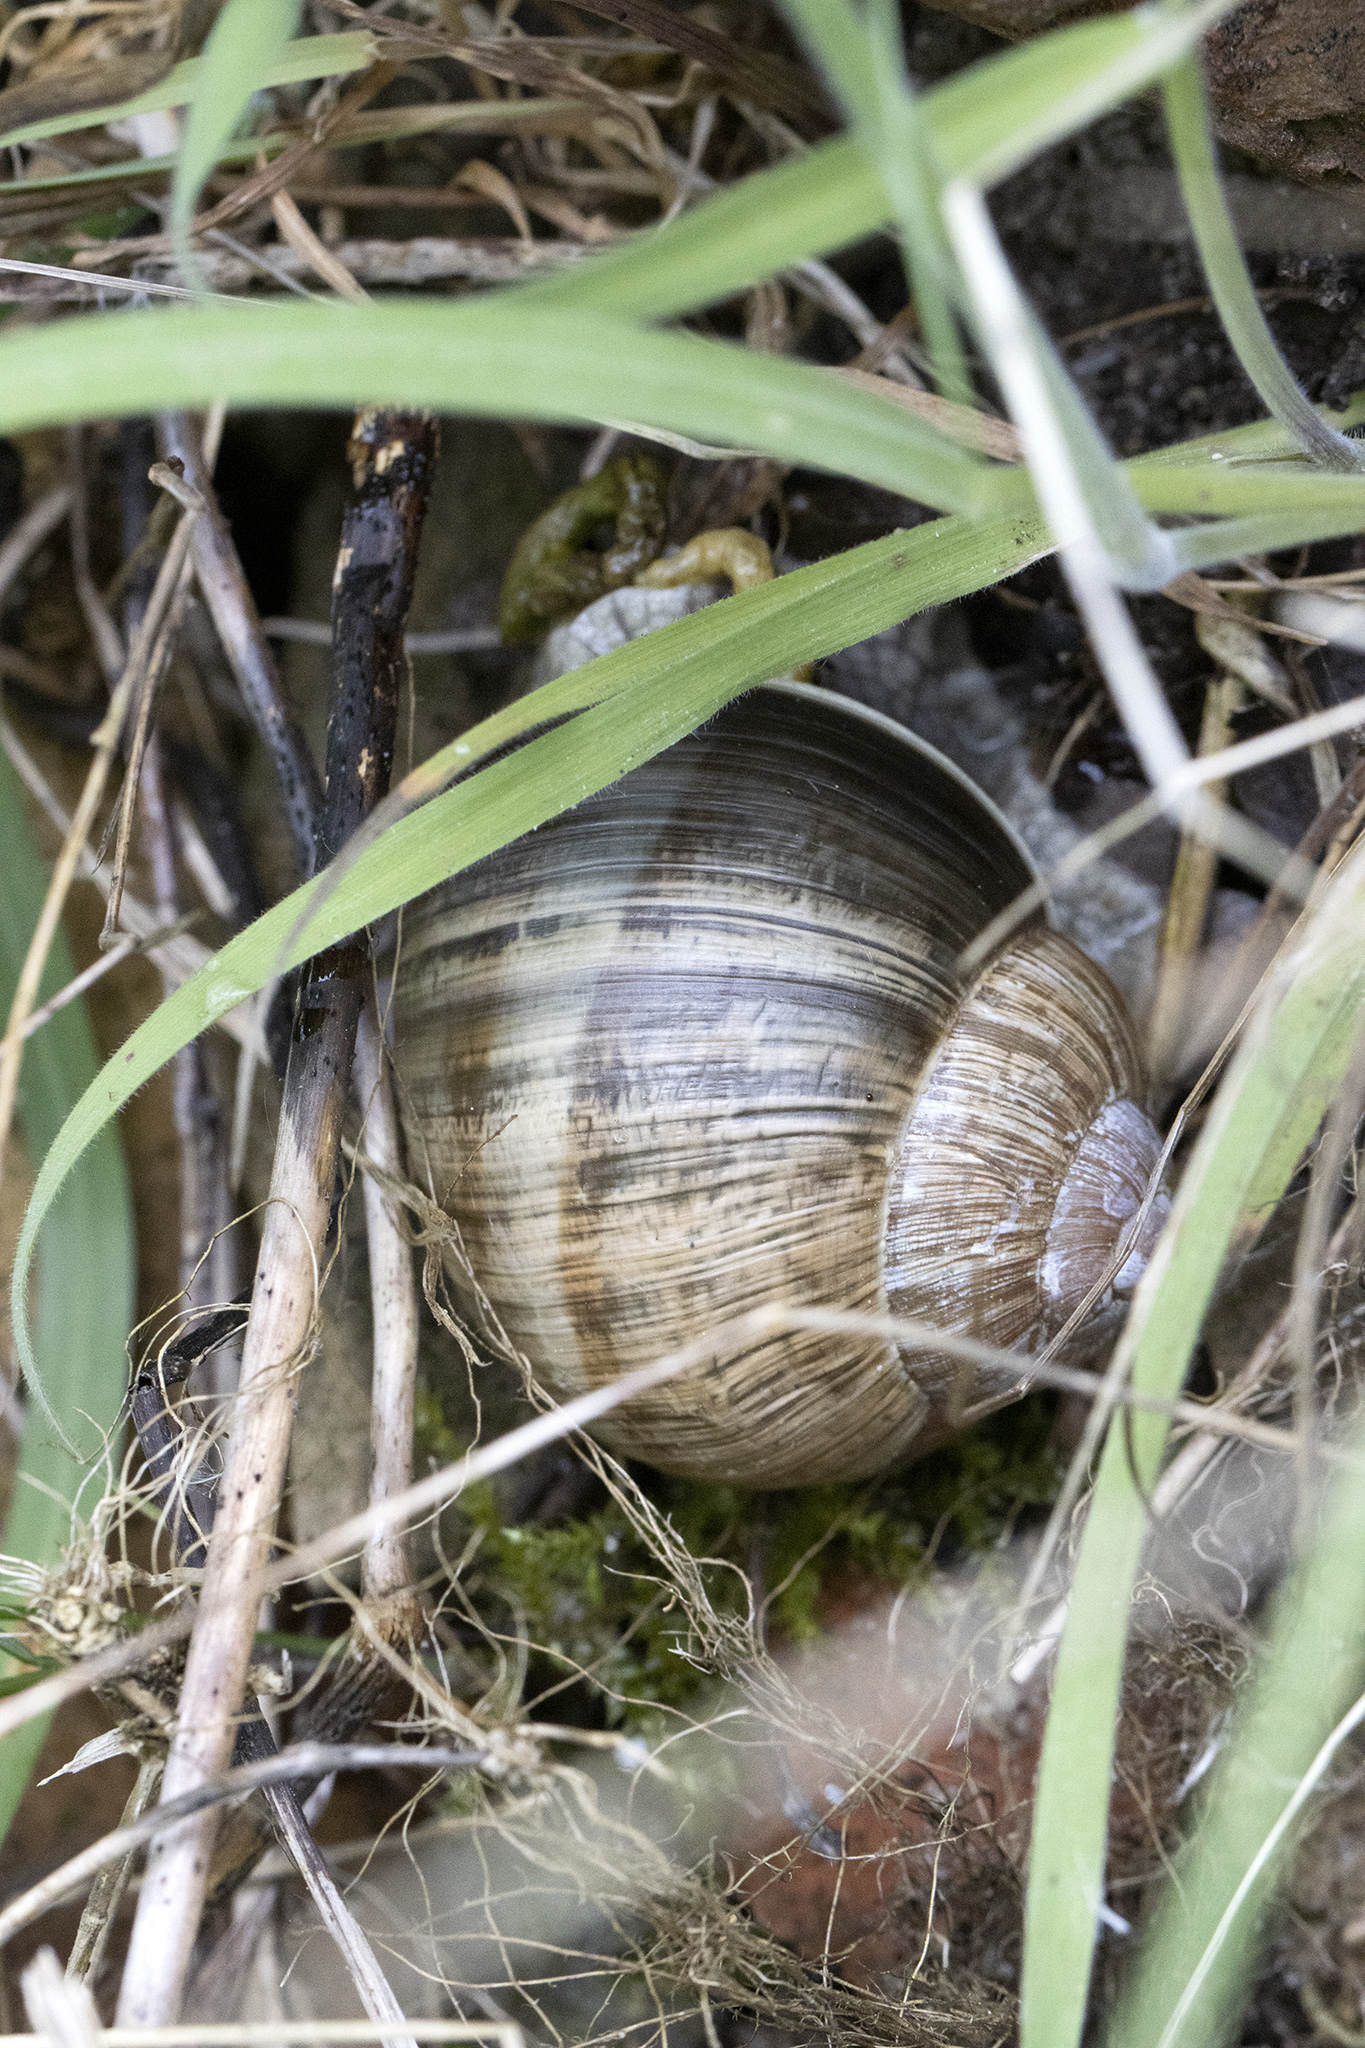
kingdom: Animalia
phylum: Mollusca
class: Gastropoda
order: Stylommatophora
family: Helicidae
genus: Helix
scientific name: Helix pomatia
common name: Roman snail
